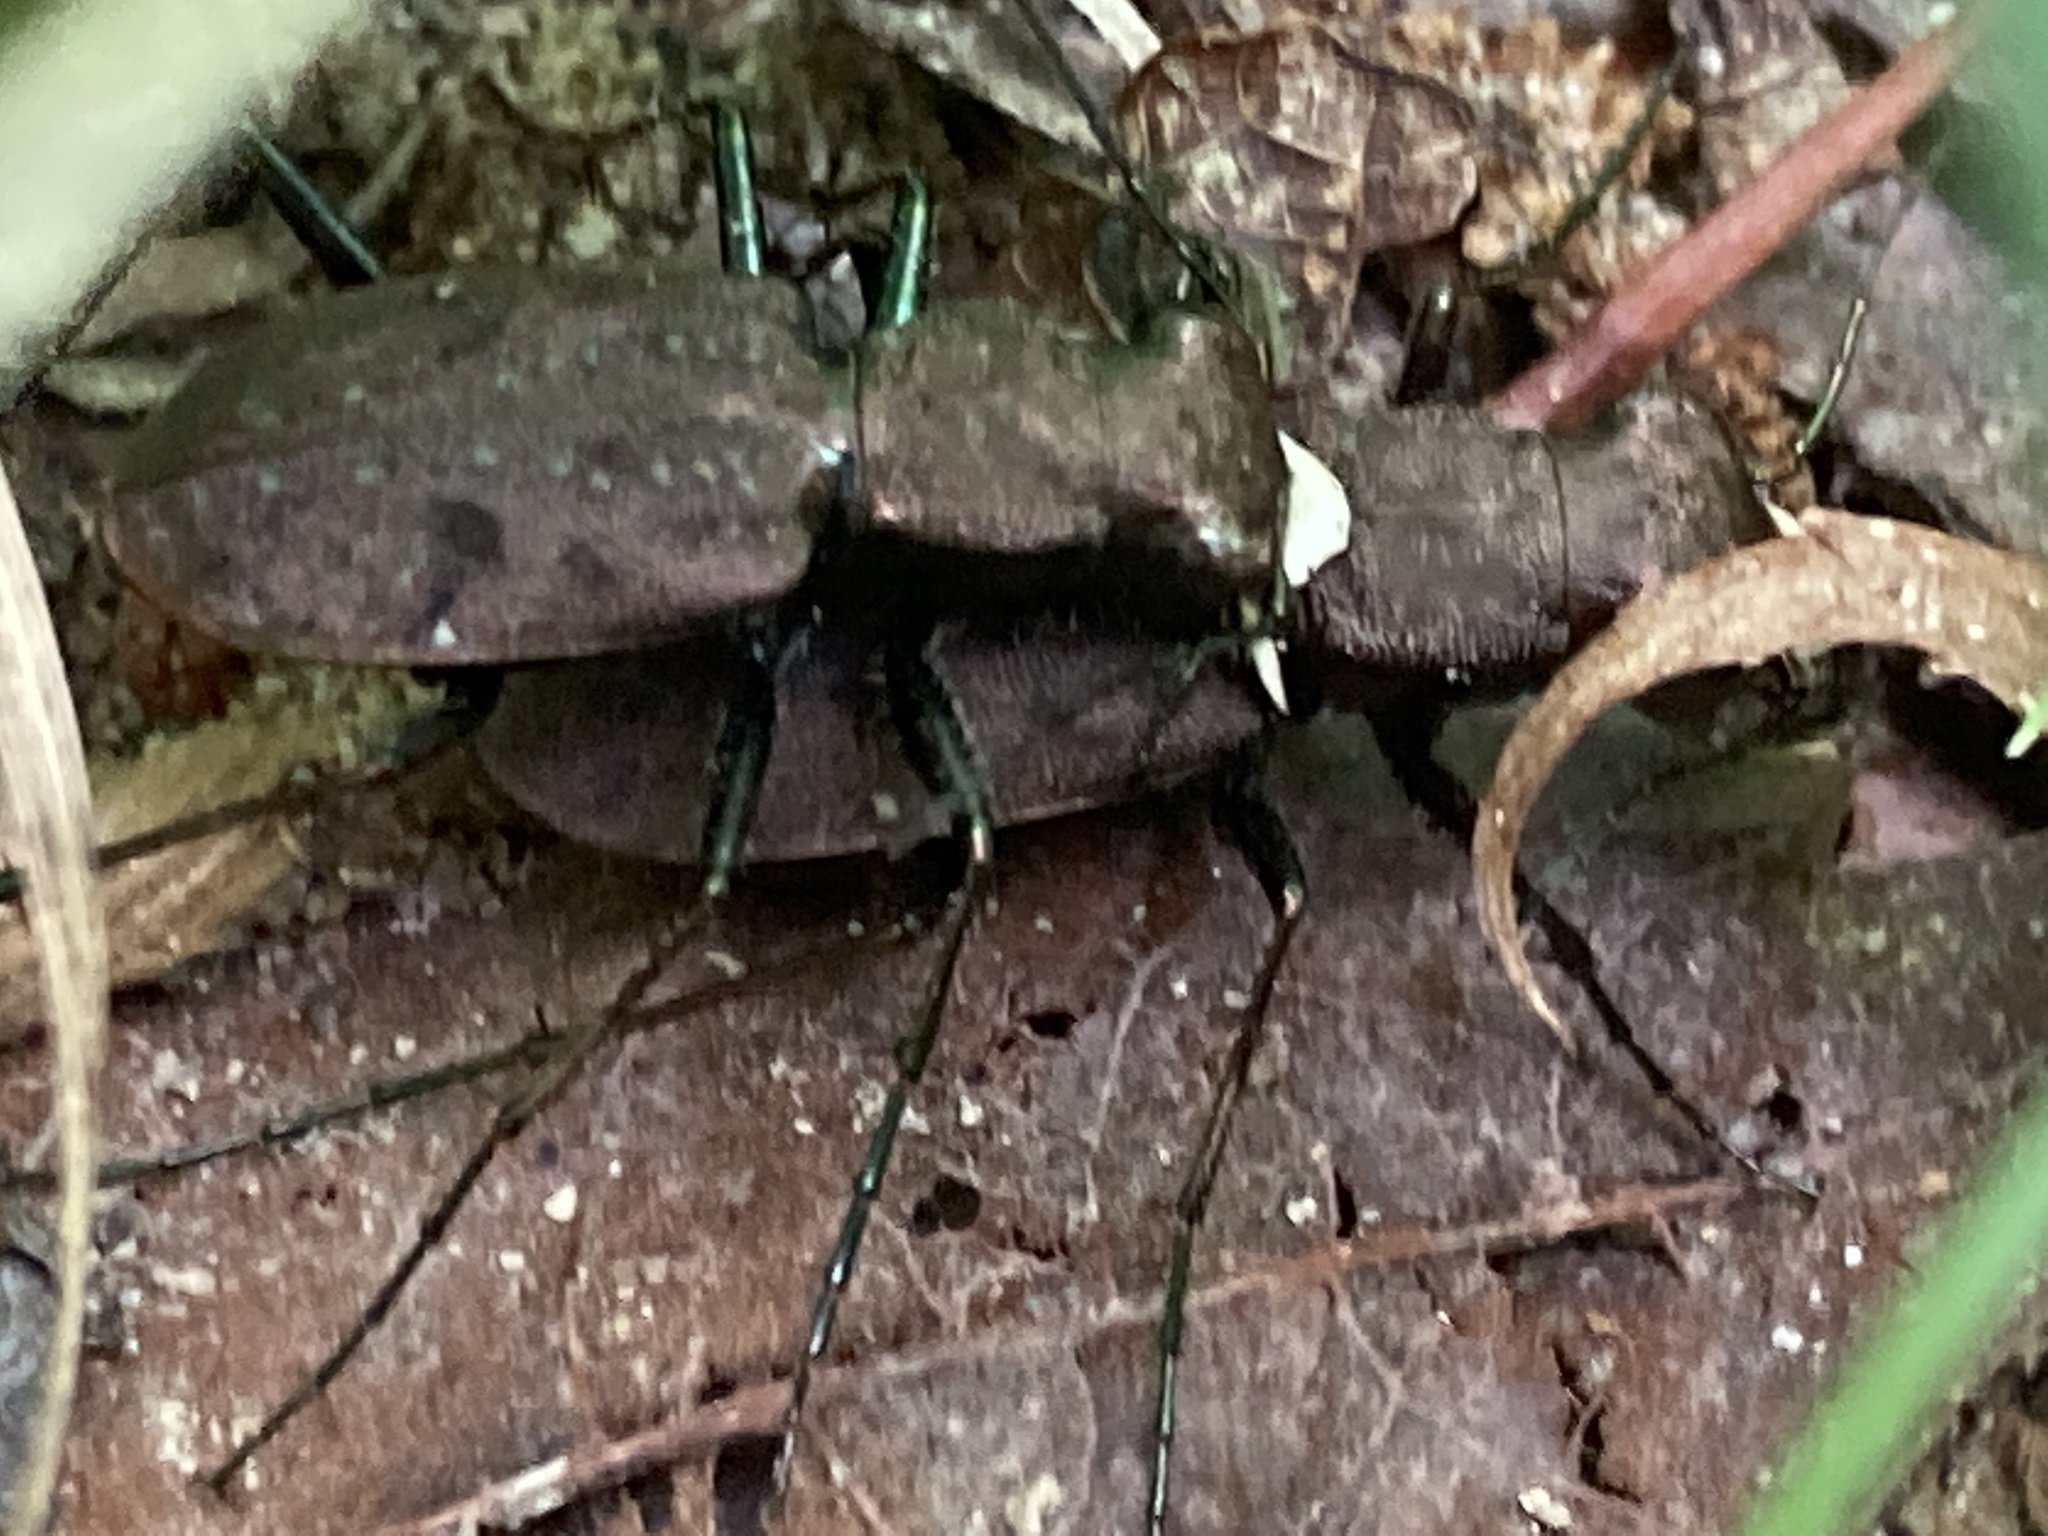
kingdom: Animalia
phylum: Arthropoda
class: Insecta
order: Coleoptera
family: Carabidae
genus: Cylindera
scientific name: Cylindera unipunctata
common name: One-spotted tiger beetle
